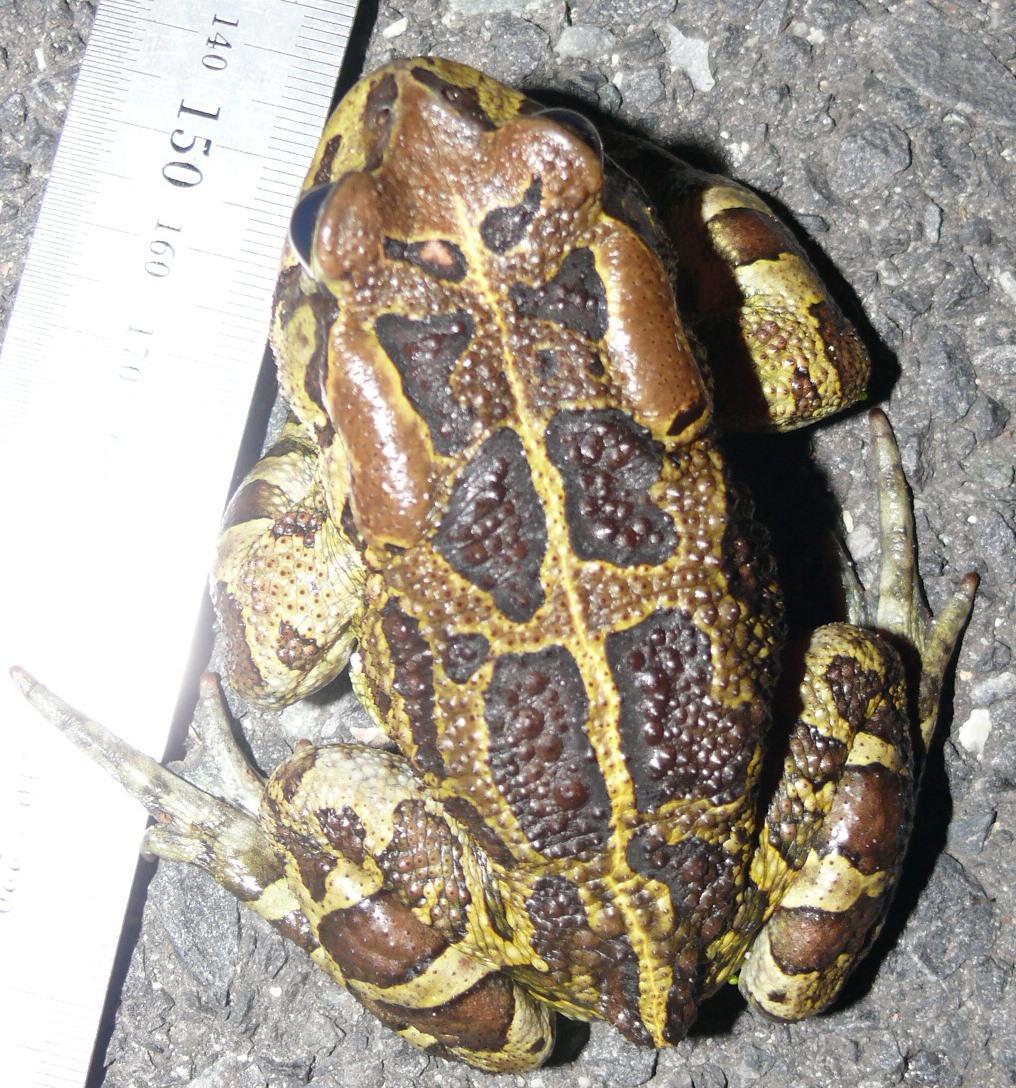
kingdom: Animalia
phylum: Chordata
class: Amphibia
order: Anura
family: Bufonidae
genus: Sclerophrys
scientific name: Sclerophrys pantherina
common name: Panther toad
